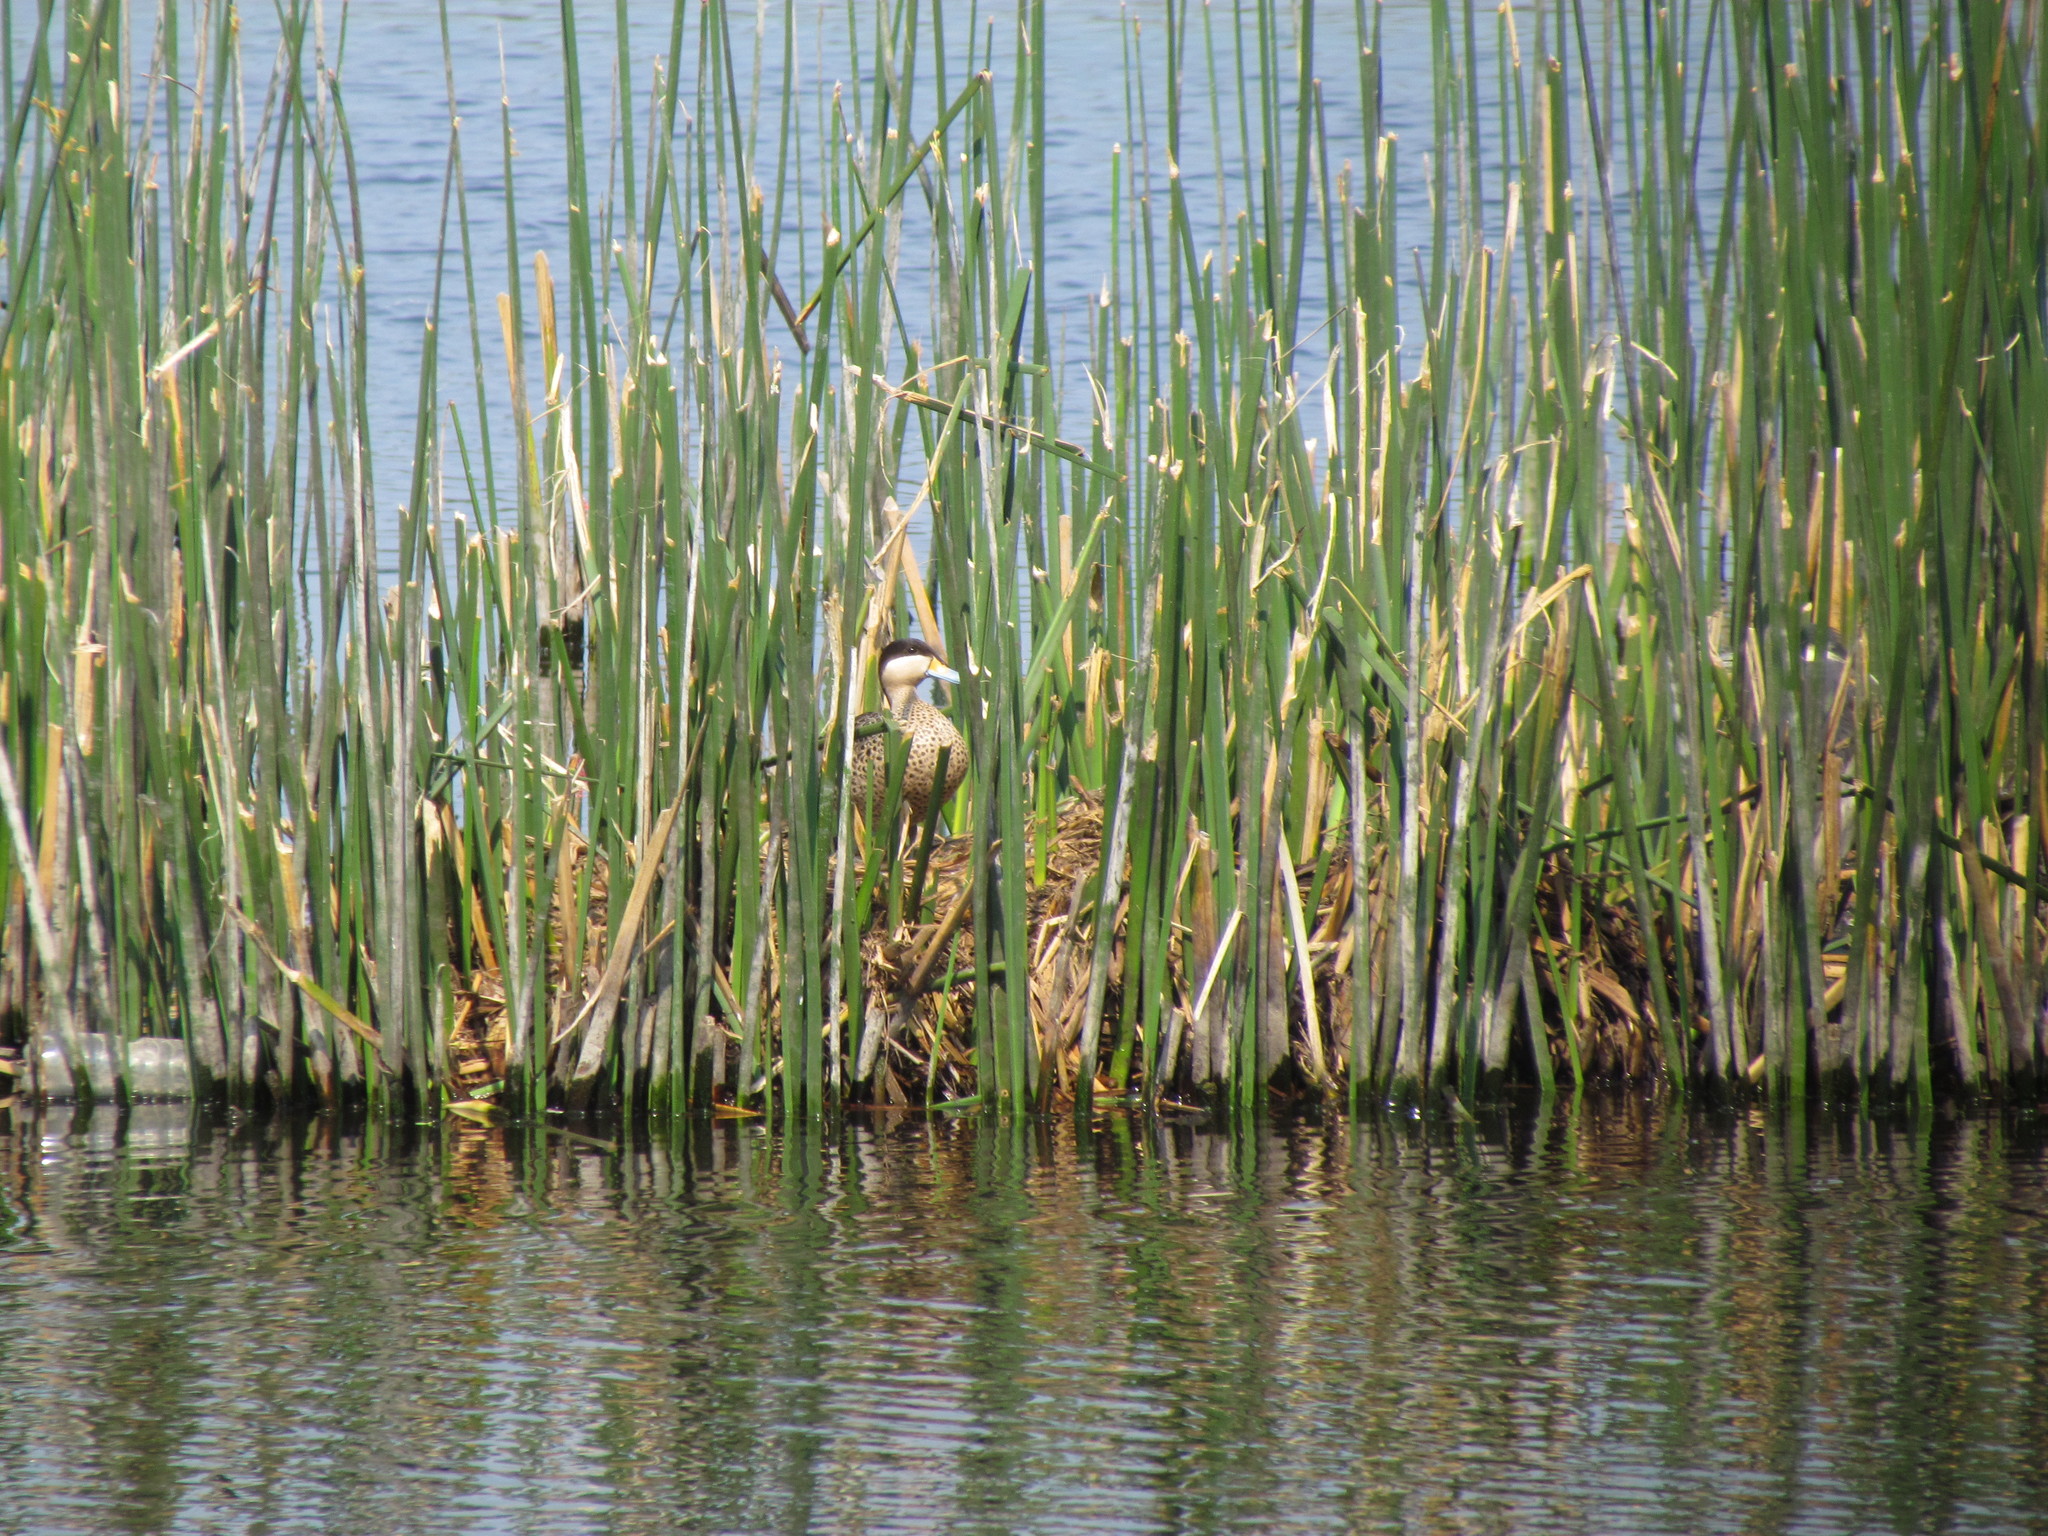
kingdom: Animalia
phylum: Chordata
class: Aves
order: Anseriformes
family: Anatidae
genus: Spatula
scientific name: Spatula versicolor
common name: Silver teal
